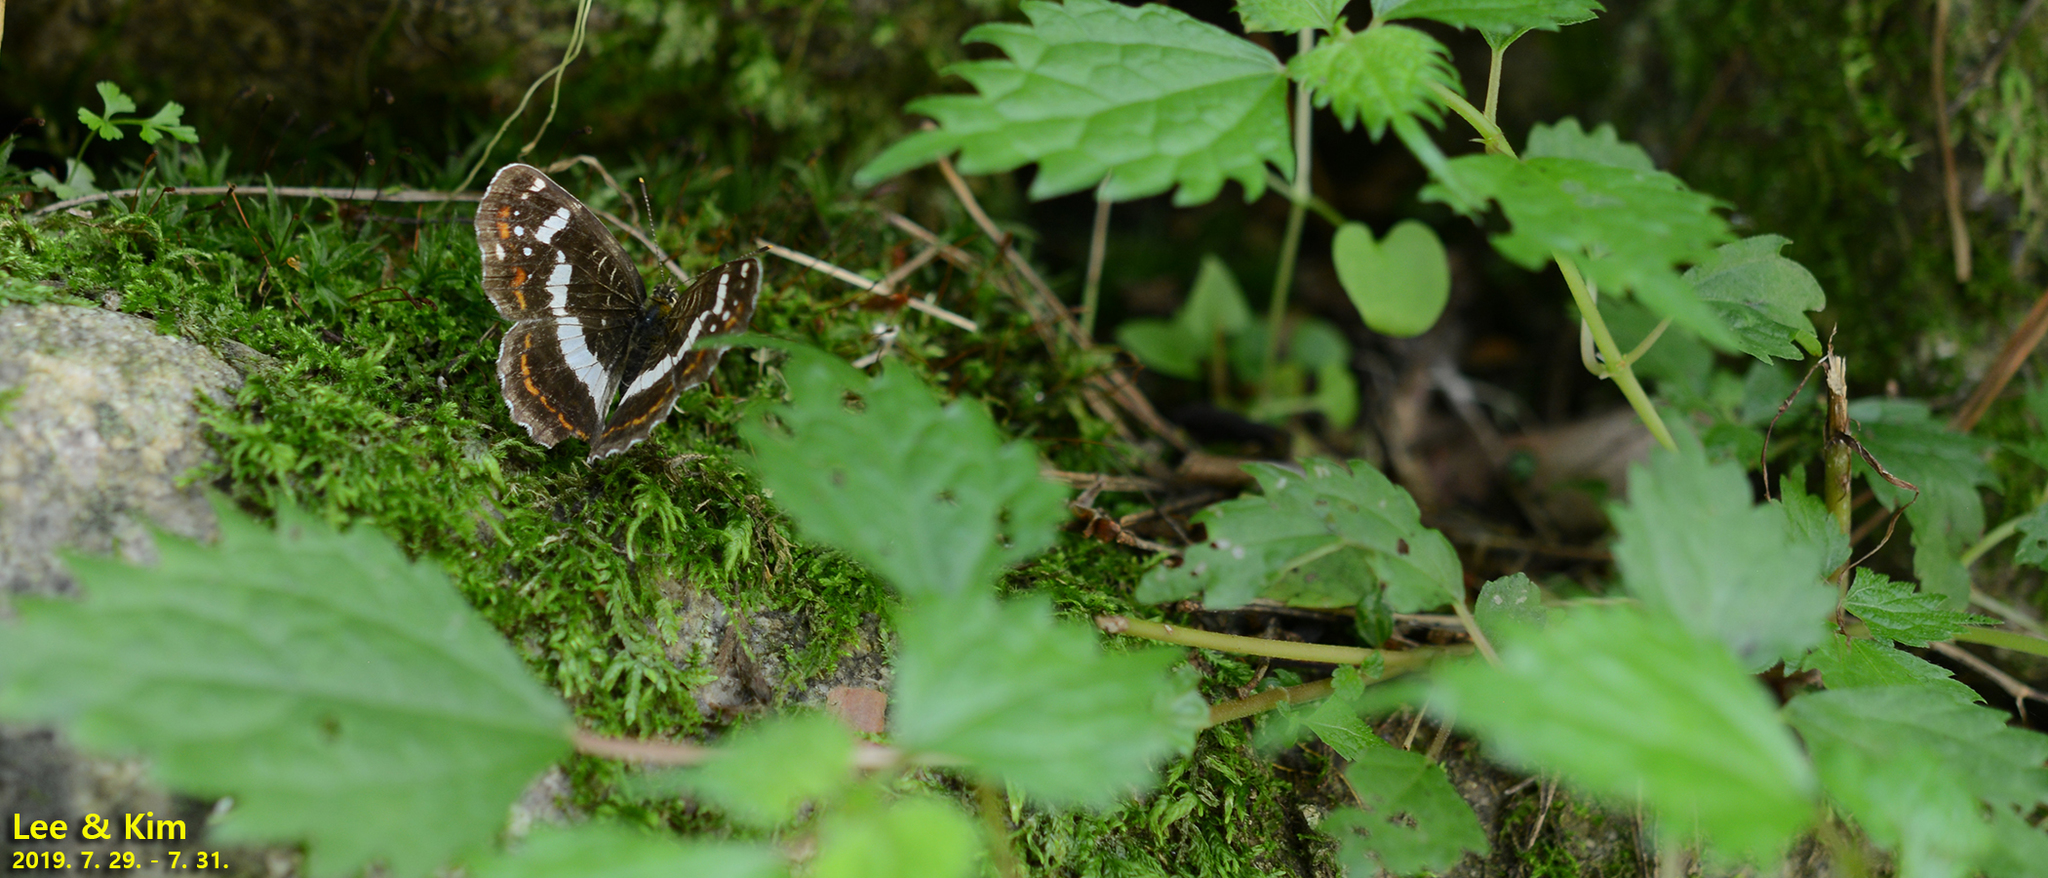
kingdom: Animalia
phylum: Arthropoda
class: Insecta
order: Lepidoptera
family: Nymphalidae
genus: Araschnia
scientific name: Araschnia burejana
